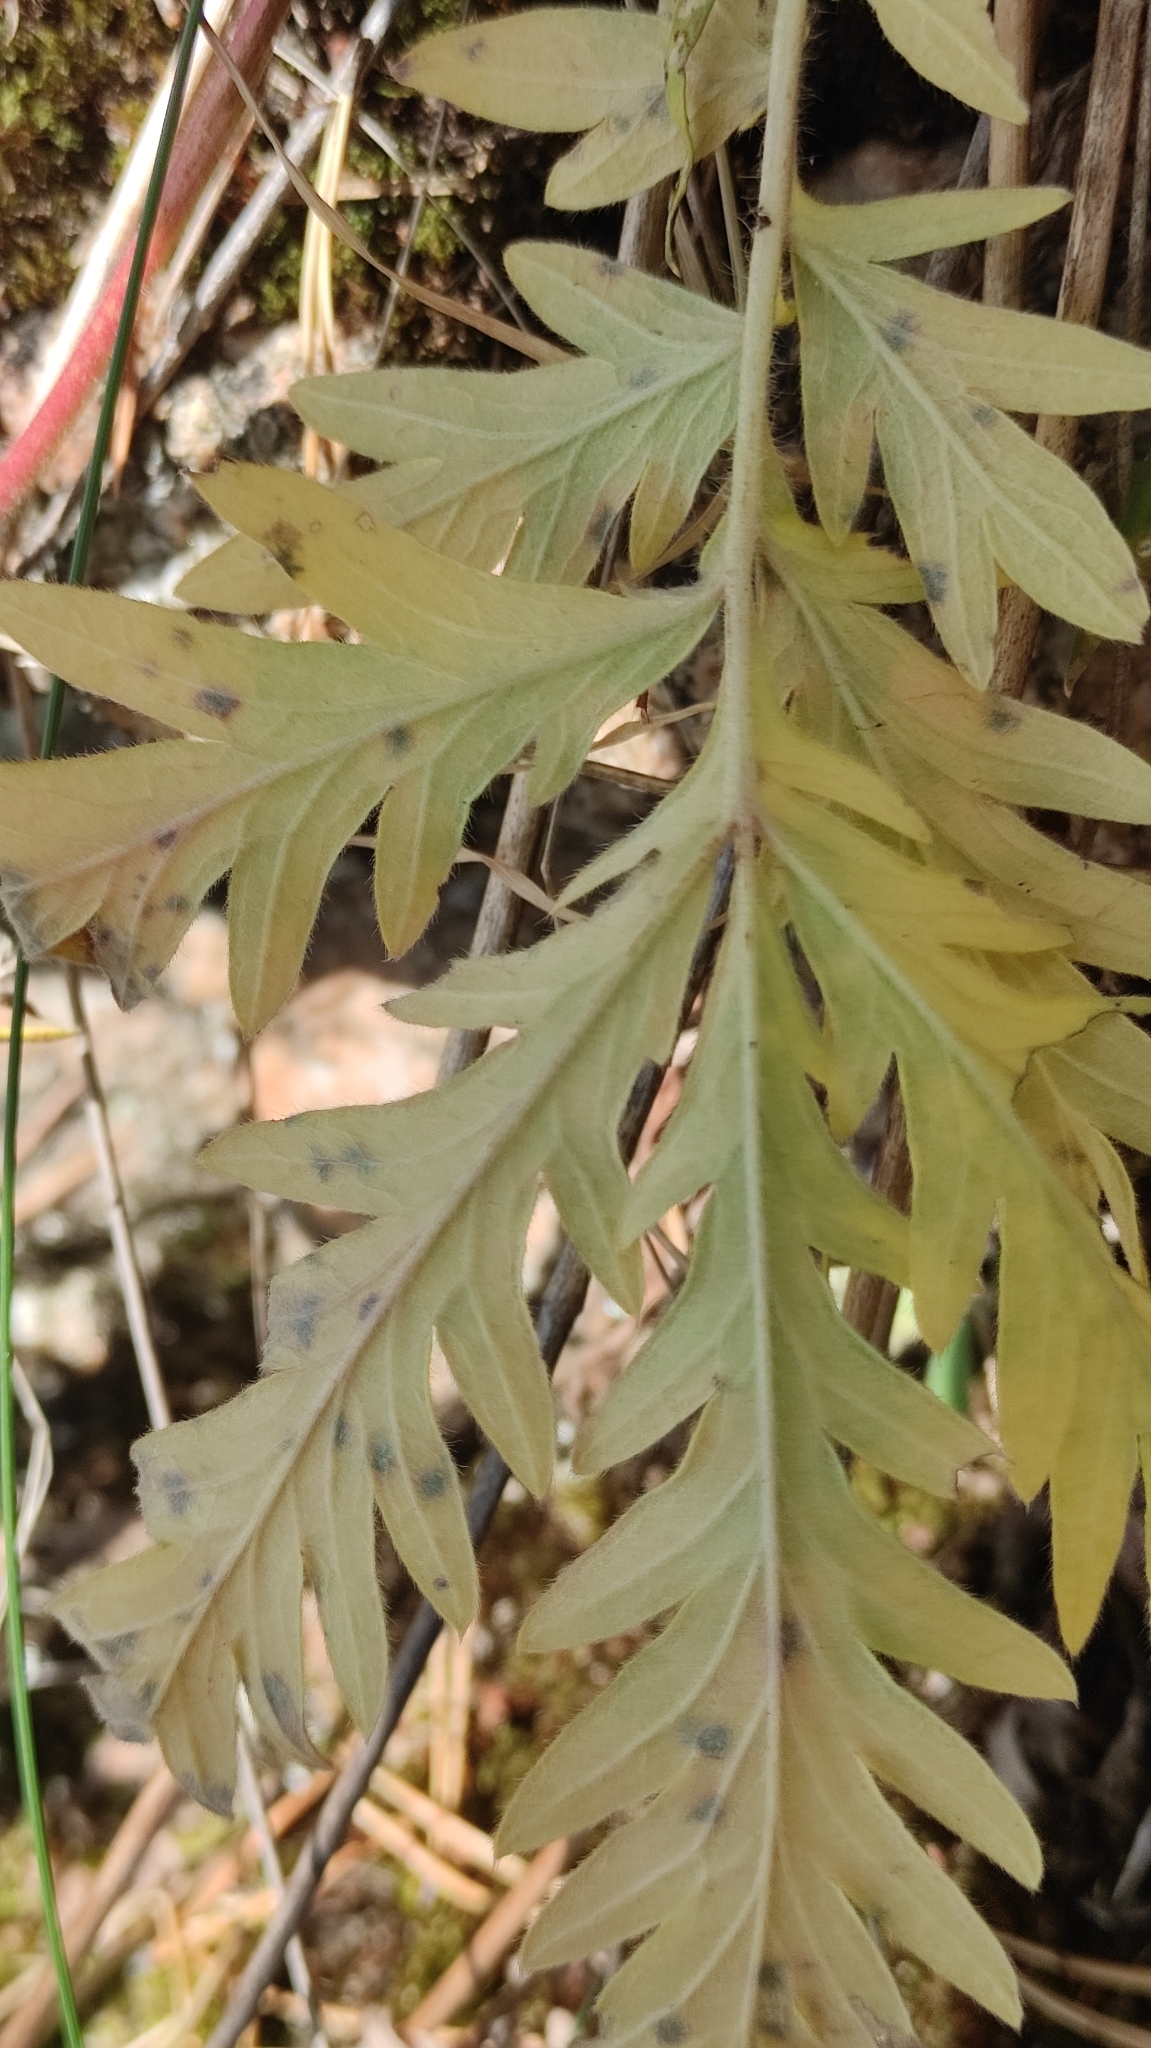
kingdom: Plantae
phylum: Tracheophyta
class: Magnoliopsida
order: Rosales
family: Rosaceae
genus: Potentilla
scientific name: Potentilla tanacetifolia
